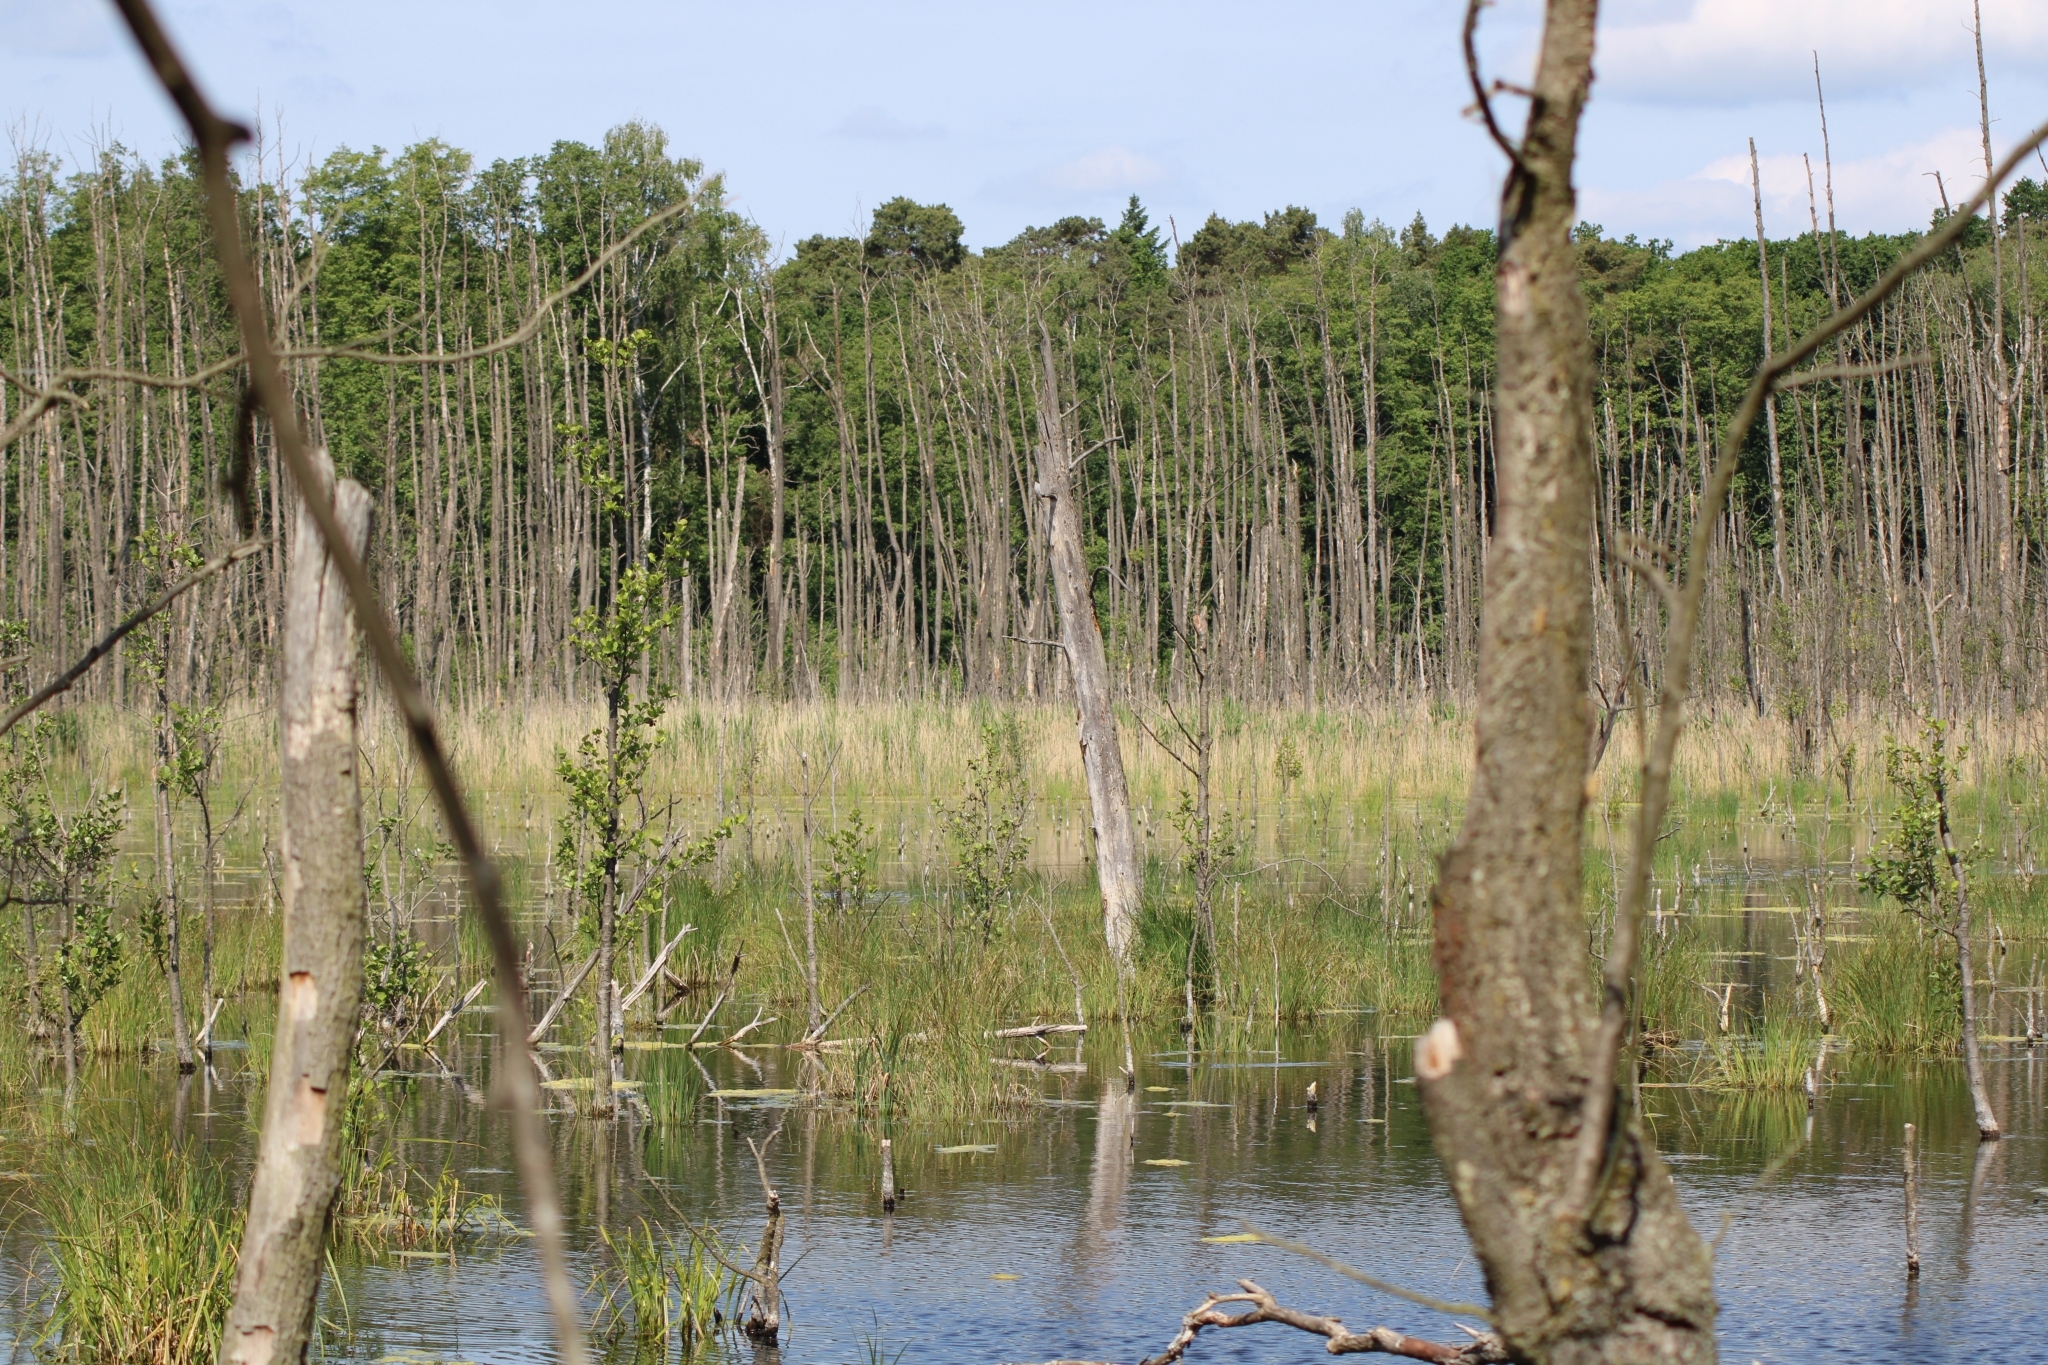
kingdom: Animalia
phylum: Chordata
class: Amphibia
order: Caudata
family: Salamandridae
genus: Lissotriton
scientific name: Lissotriton vulgaris
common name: Smooth newt
